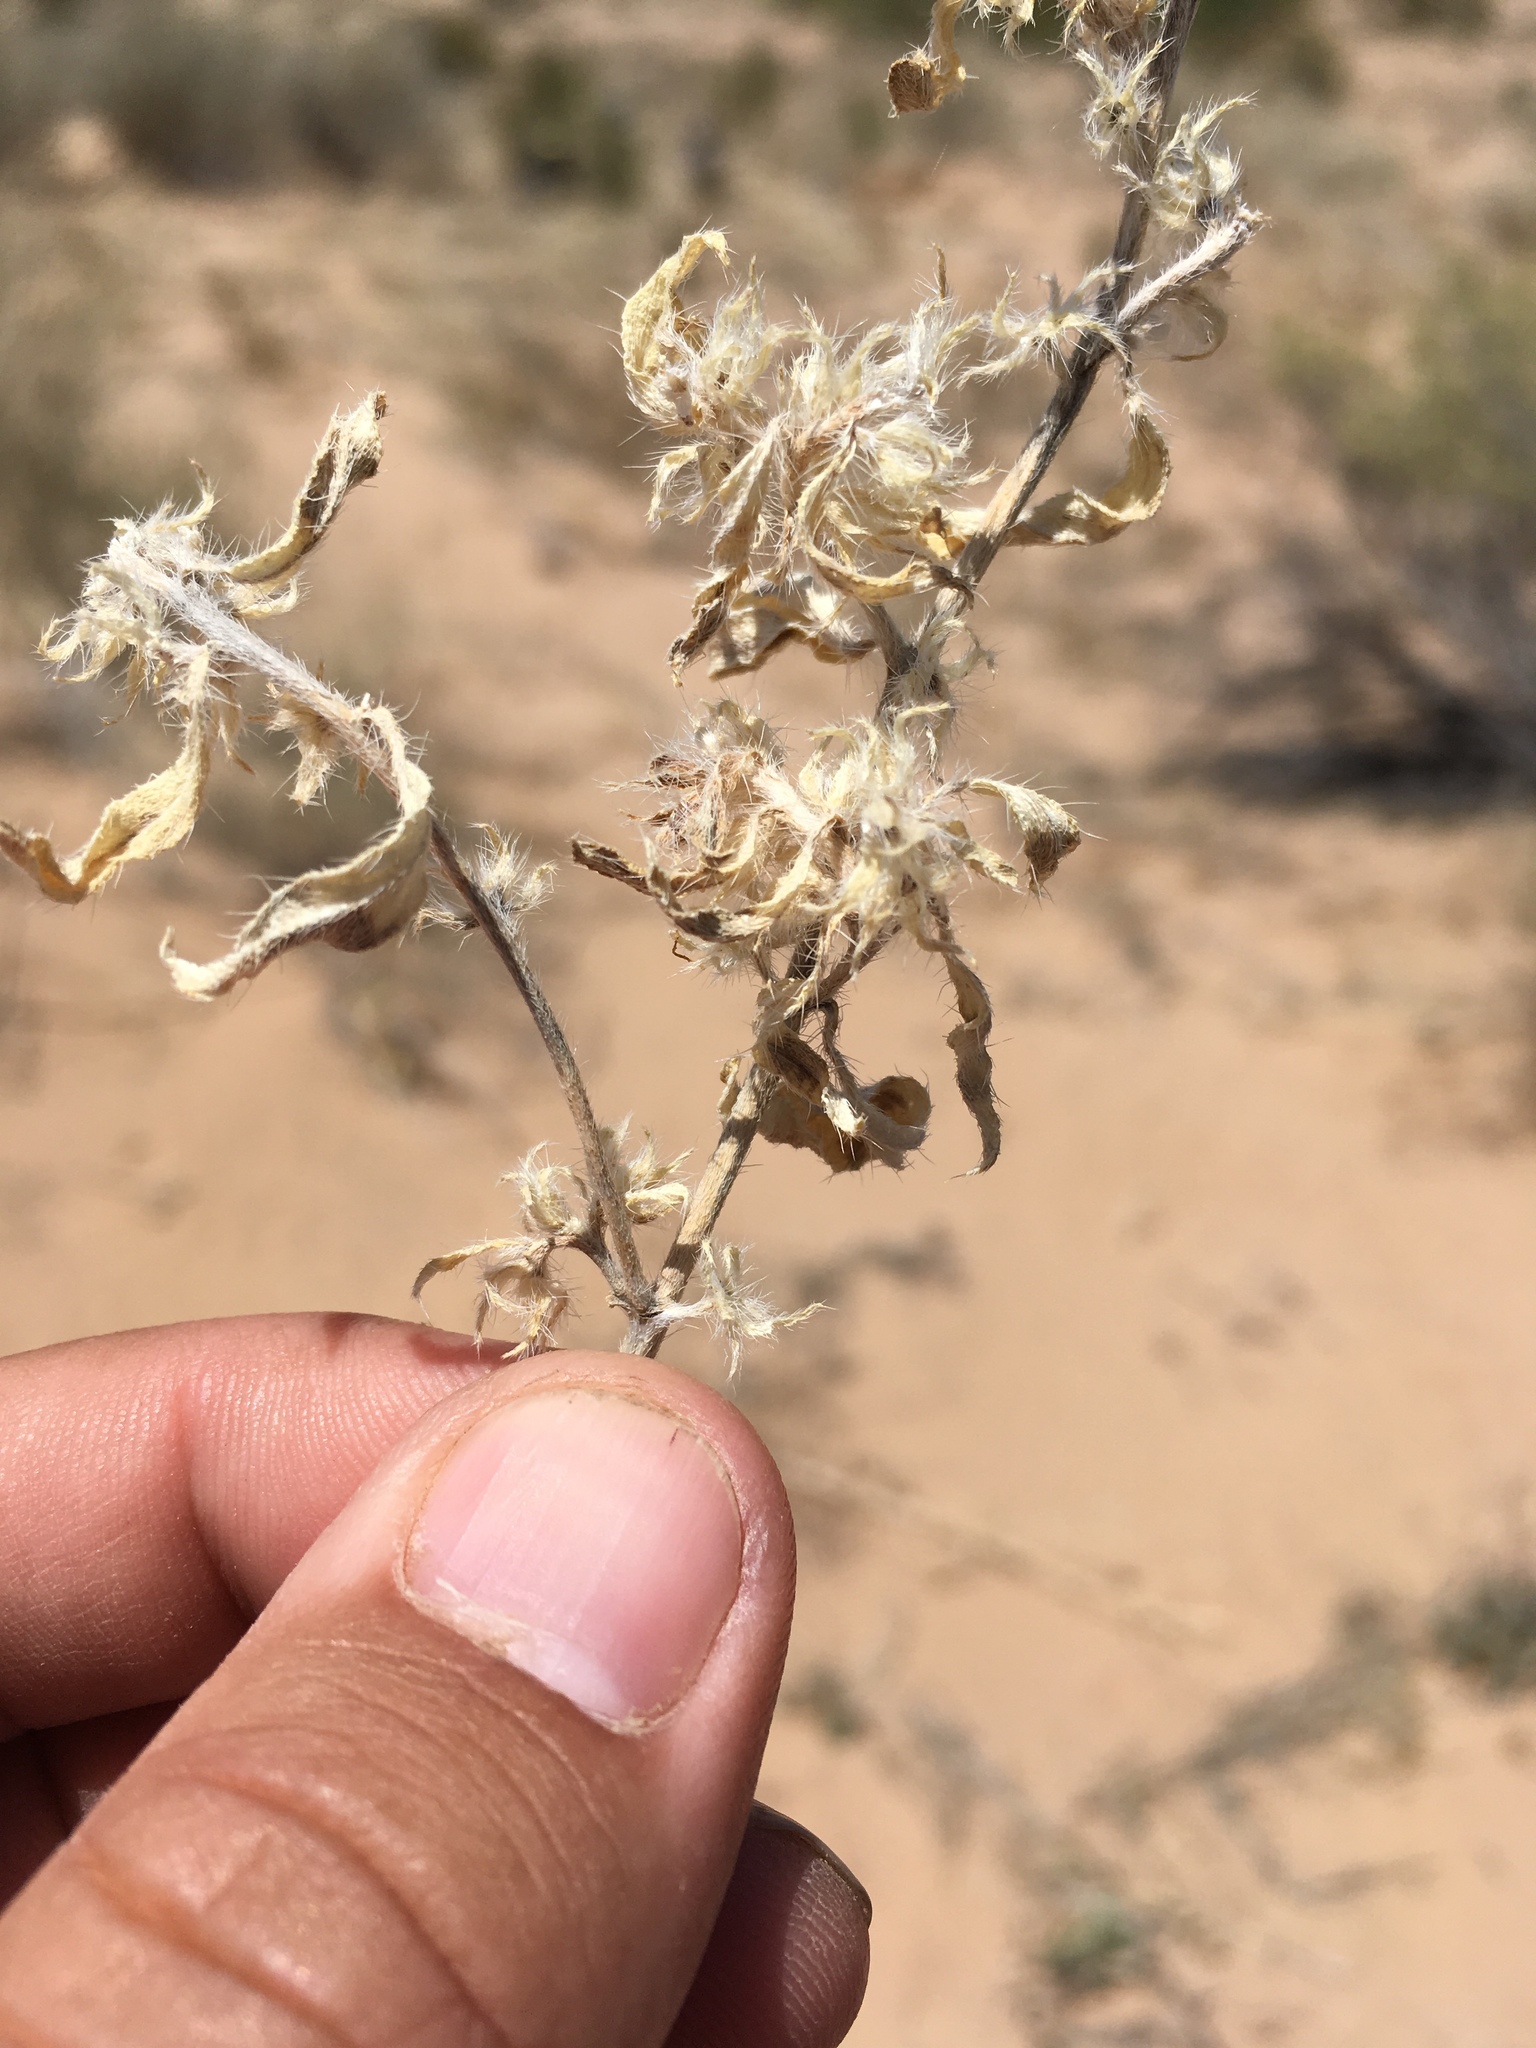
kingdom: Plantae
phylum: Tracheophyta
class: Magnoliopsida
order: Boraginales
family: Heliotropiaceae
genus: Euploca
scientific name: Euploca convolvulacea
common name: Bindweed heliotrope
